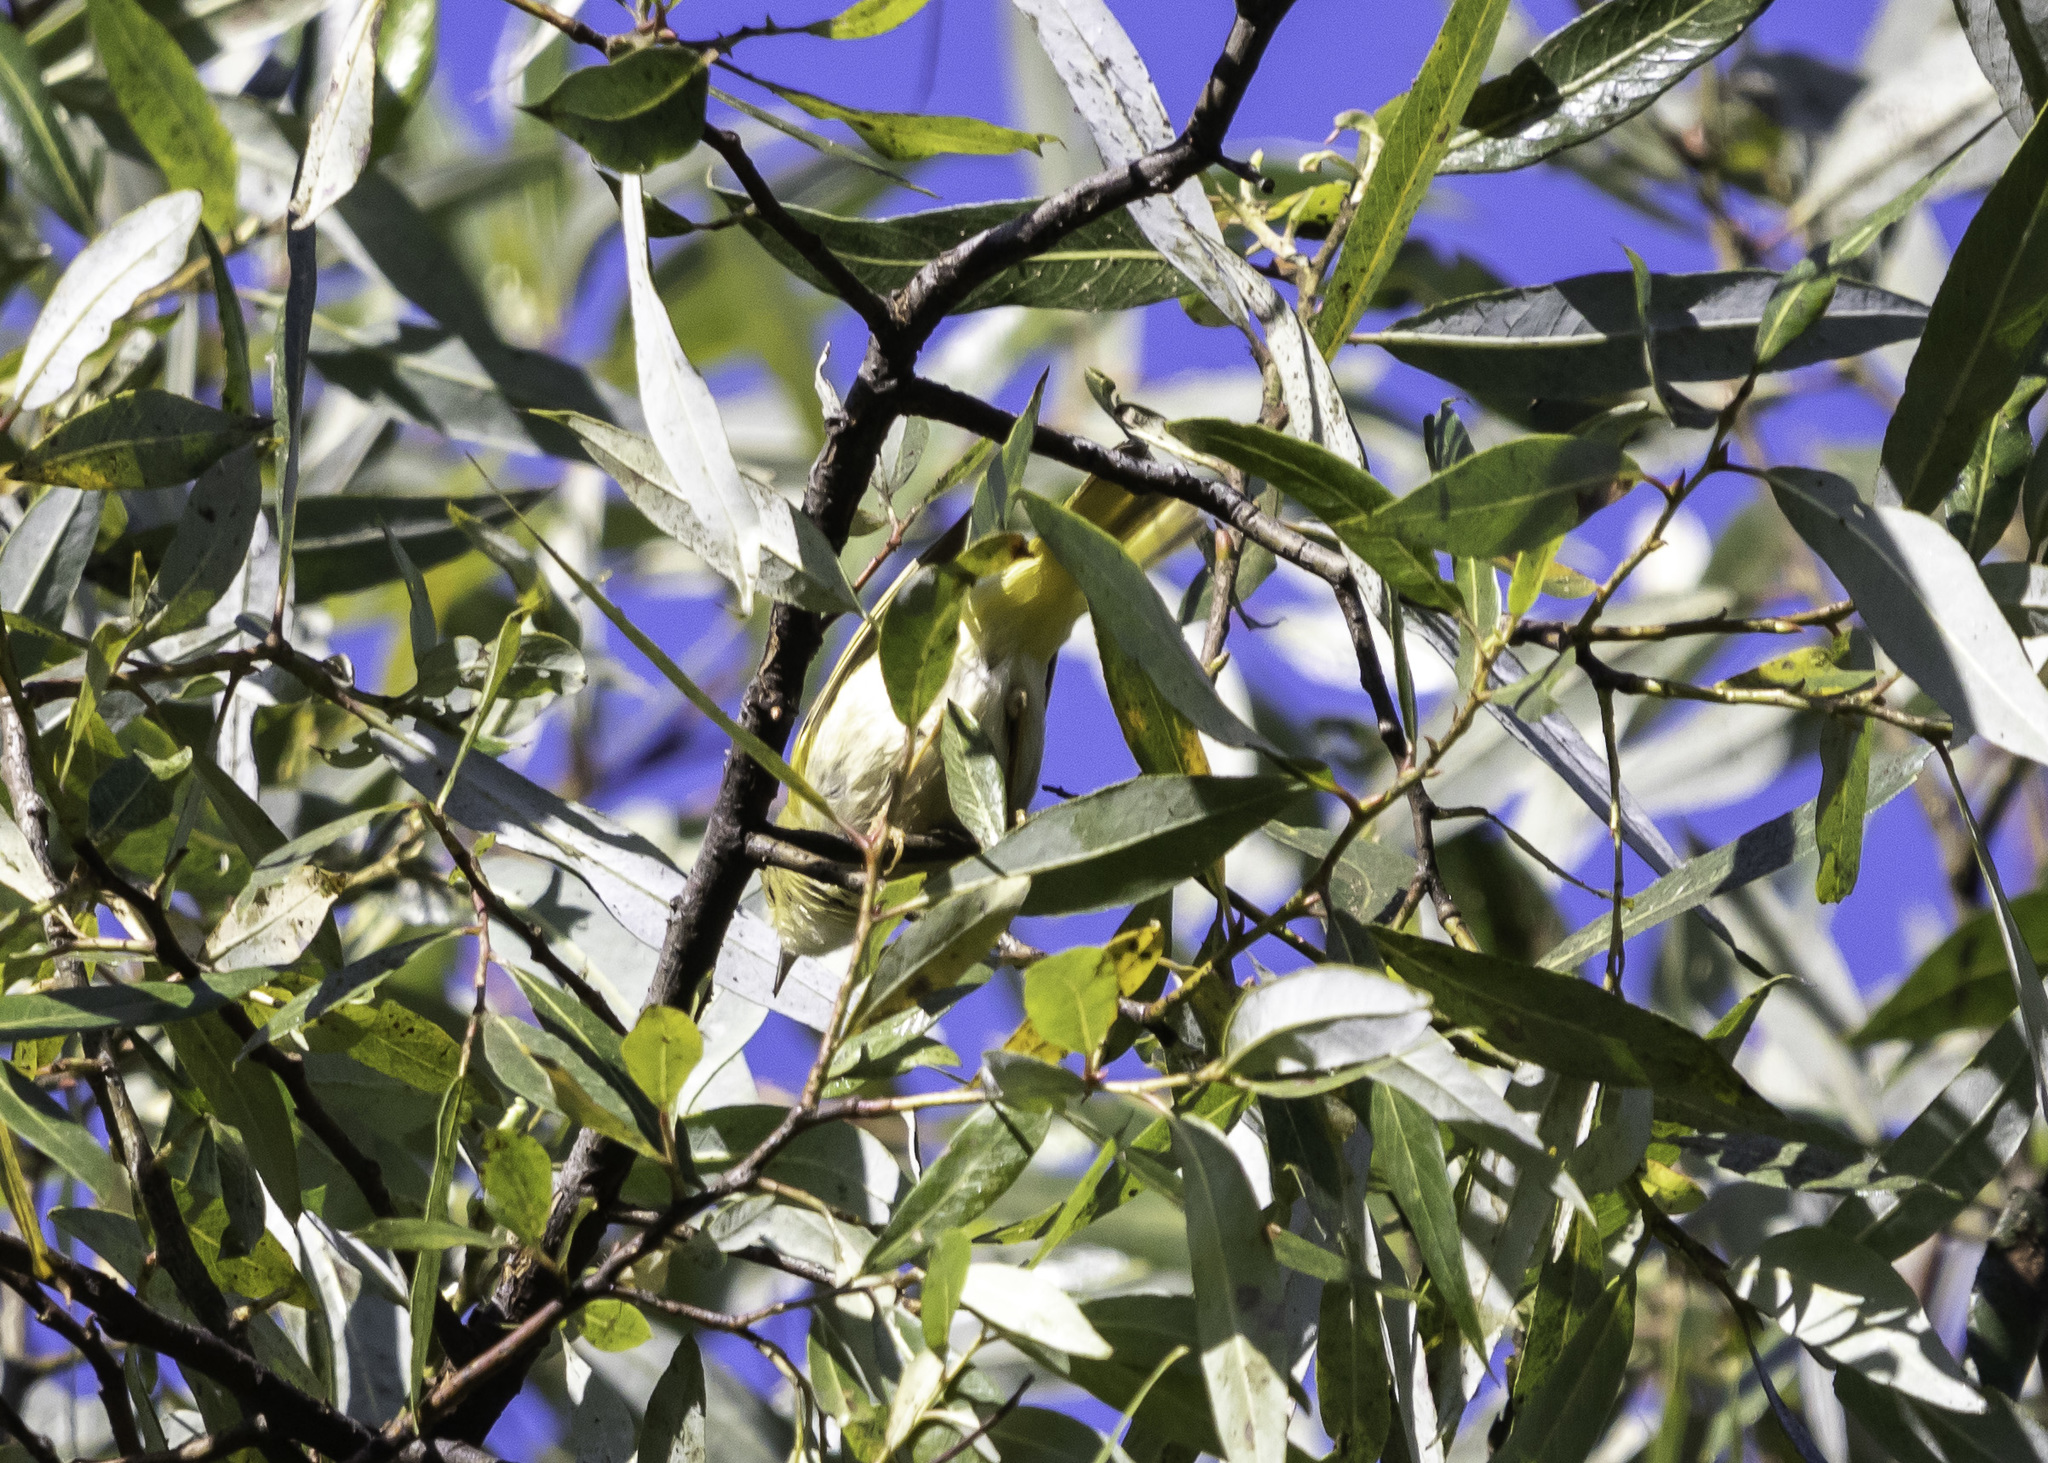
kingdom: Animalia
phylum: Chordata
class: Aves
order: Passeriformes
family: Parulidae
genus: Setophaga
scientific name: Setophaga petechia
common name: Yellow warbler
